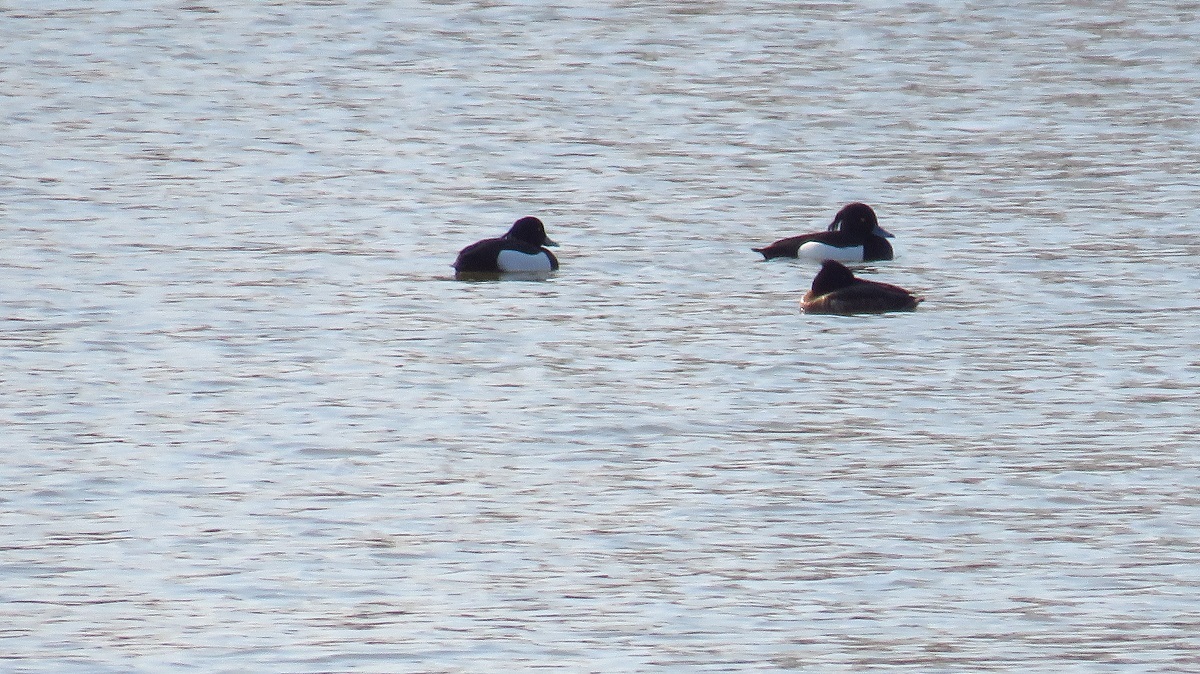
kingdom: Animalia
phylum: Chordata
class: Aves
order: Anseriformes
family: Anatidae
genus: Aythya
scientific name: Aythya fuligula
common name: Tufted duck
